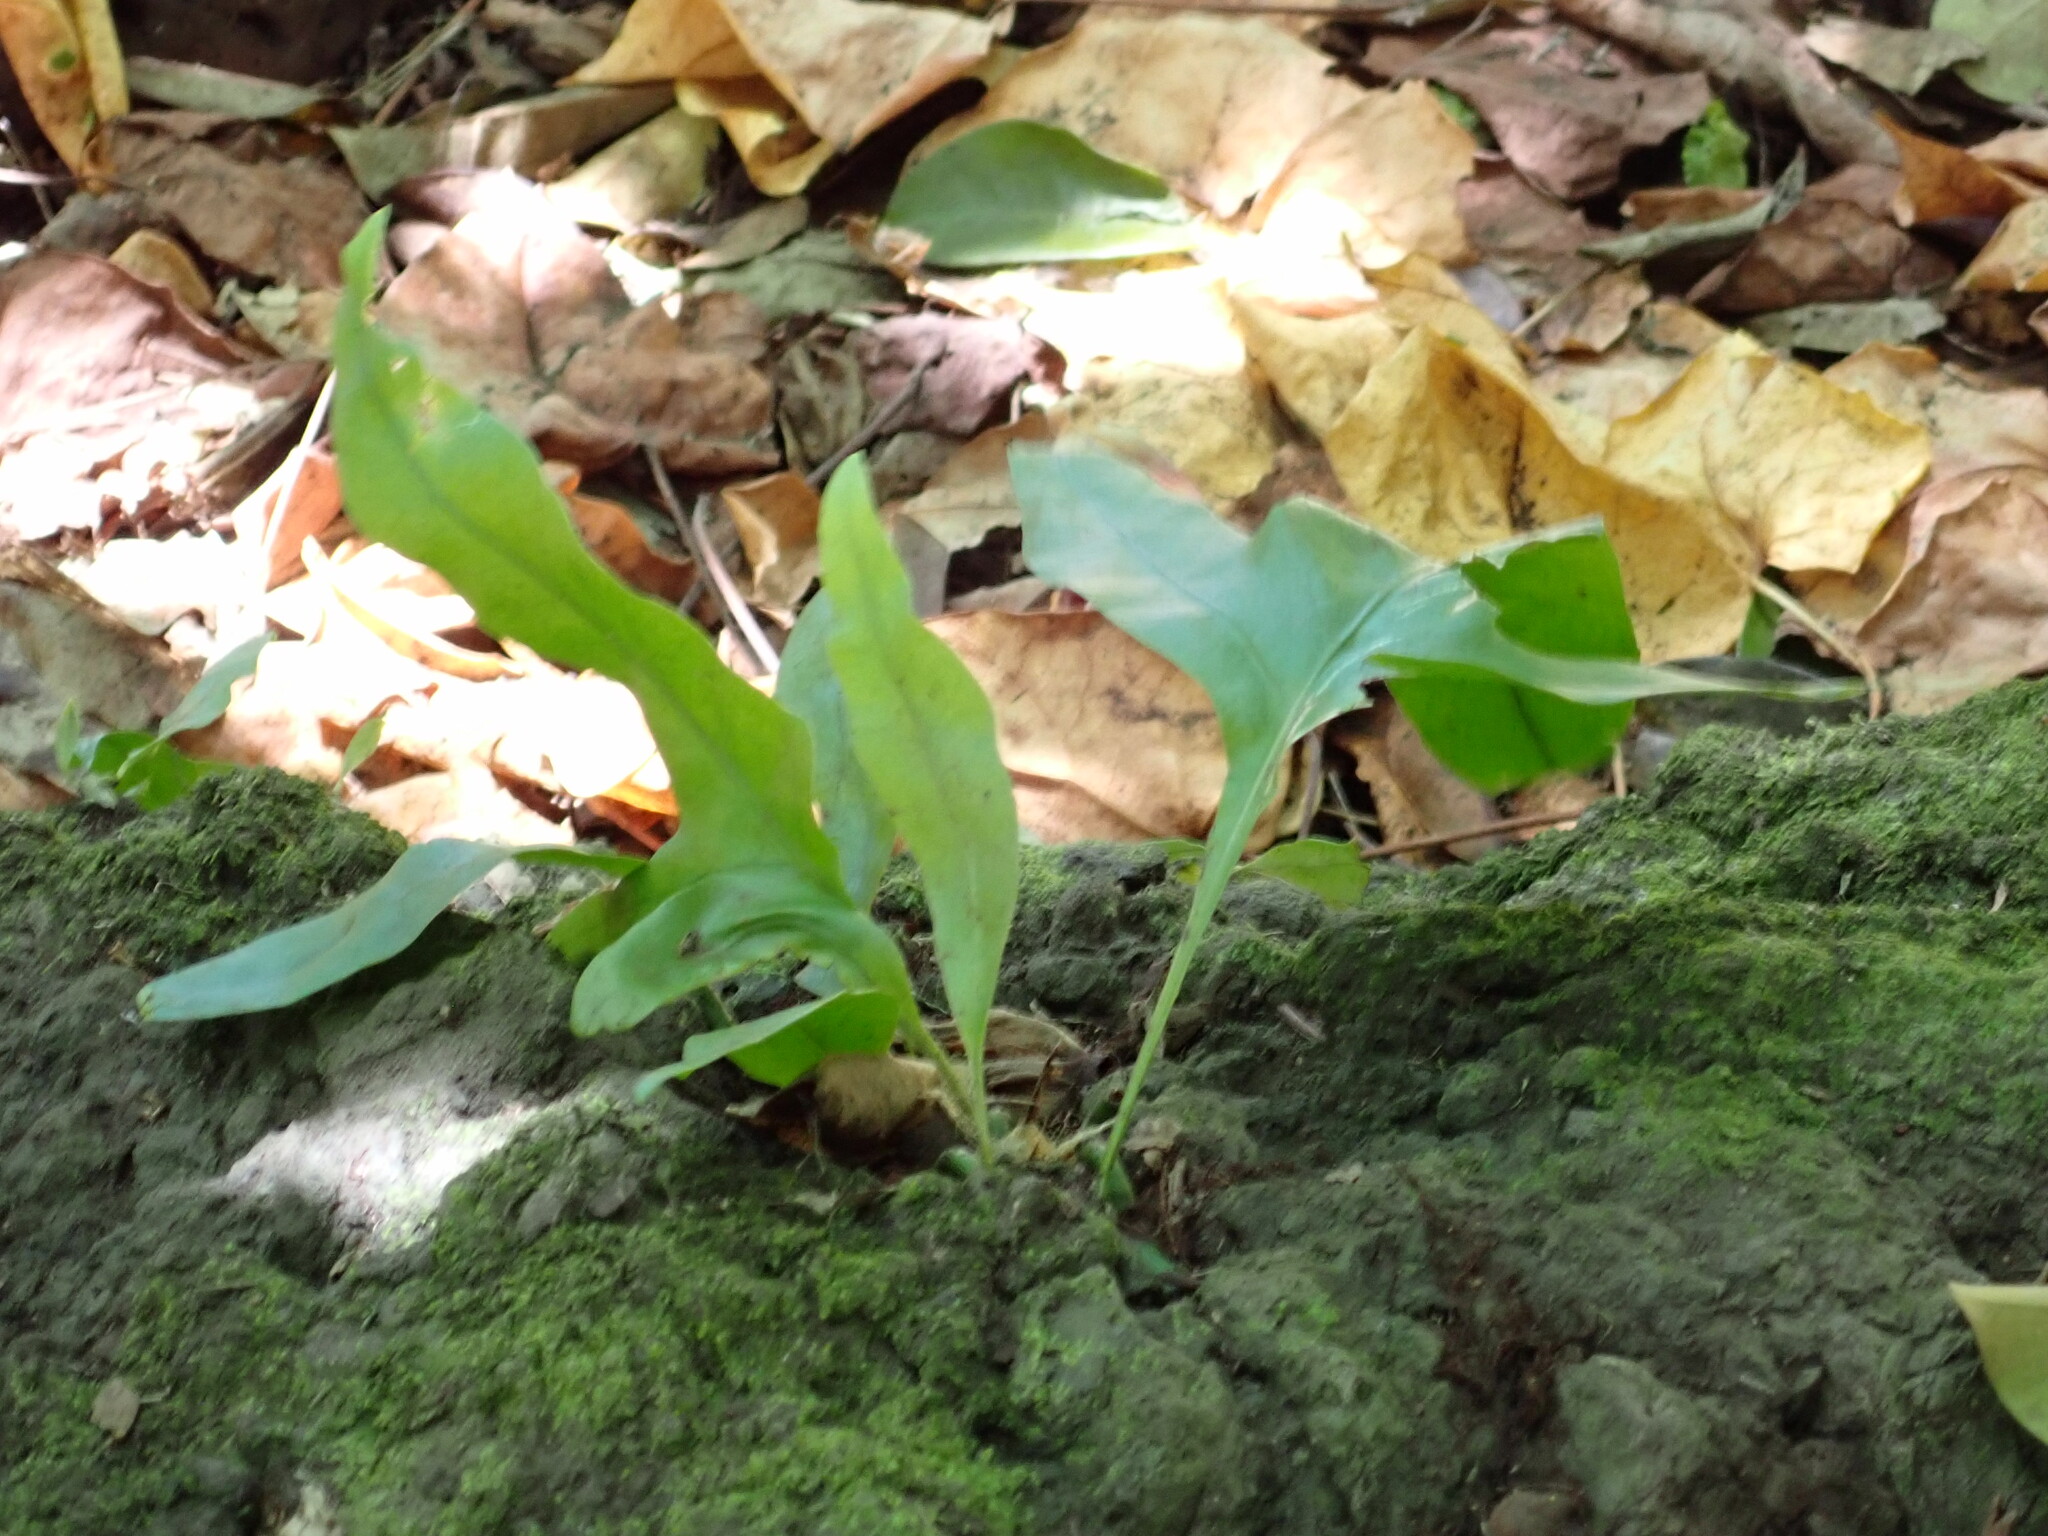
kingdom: Plantae
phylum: Tracheophyta
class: Polypodiopsida
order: Polypodiales
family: Polypodiaceae
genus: Microsorum
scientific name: Microsorum grossum
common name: Musk fern
